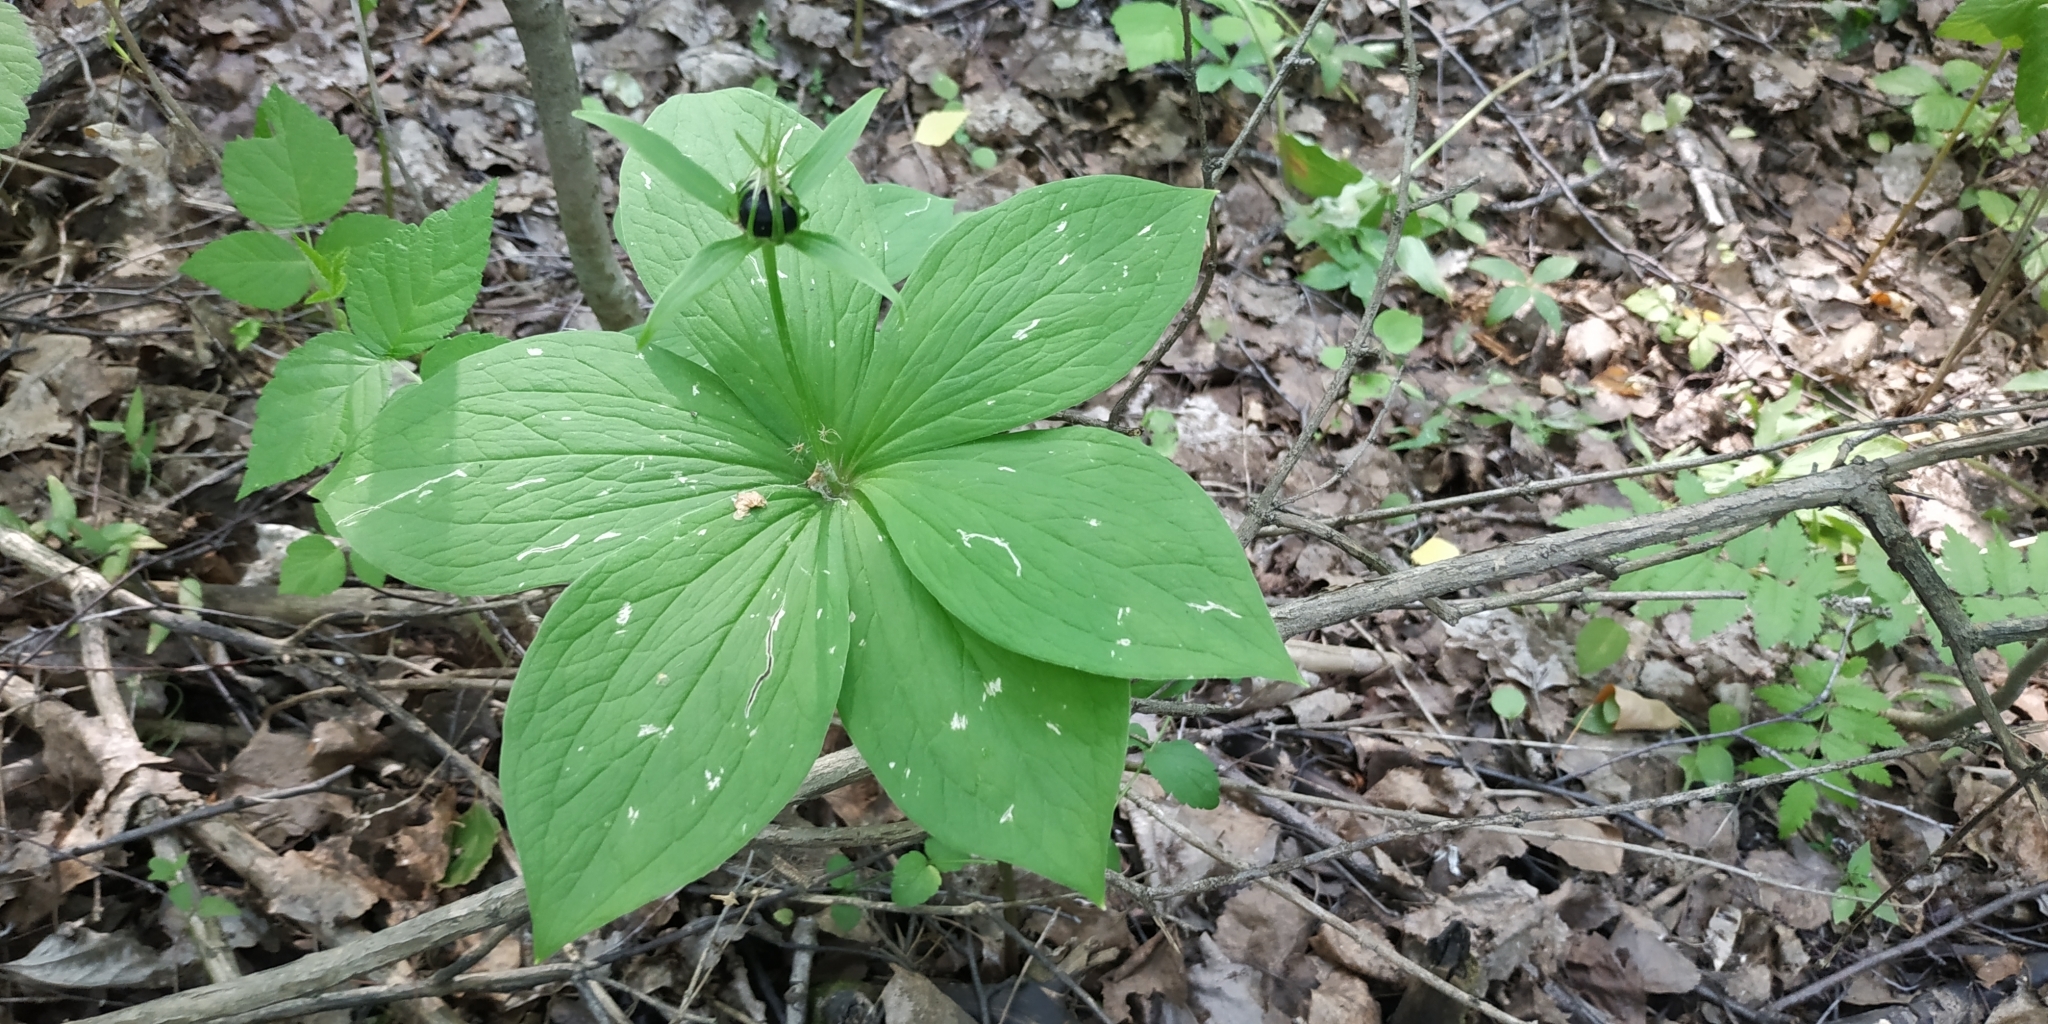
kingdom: Plantae
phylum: Tracheophyta
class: Liliopsida
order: Liliales
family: Melanthiaceae
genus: Paris
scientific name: Paris quadrifolia
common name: Herb-paris
